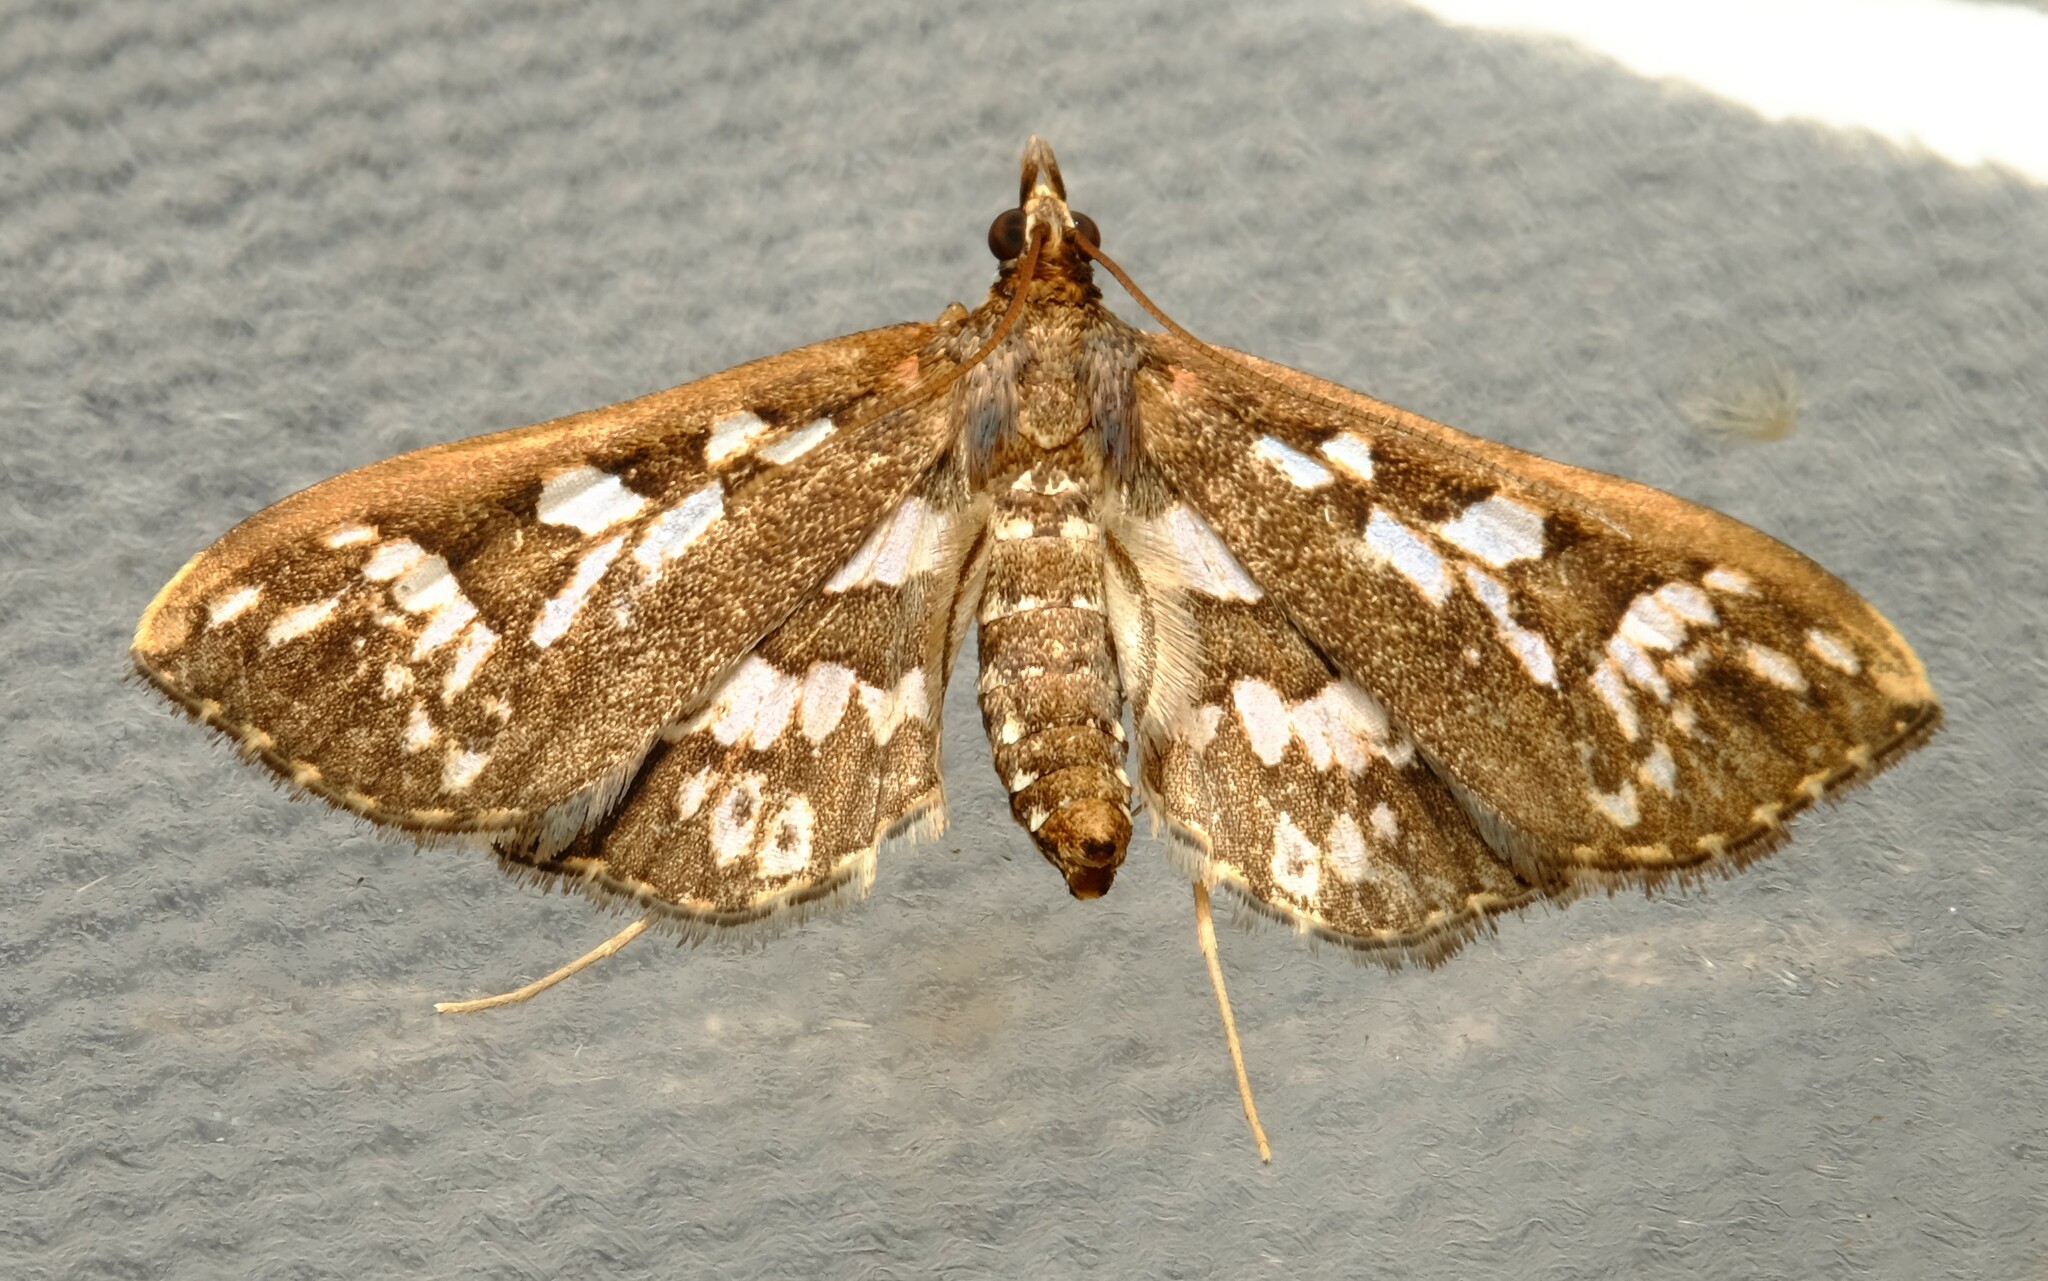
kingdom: Animalia
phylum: Arthropoda
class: Insecta
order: Lepidoptera
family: Crambidae
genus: Ischnurges
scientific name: Ischnurges illustralis
